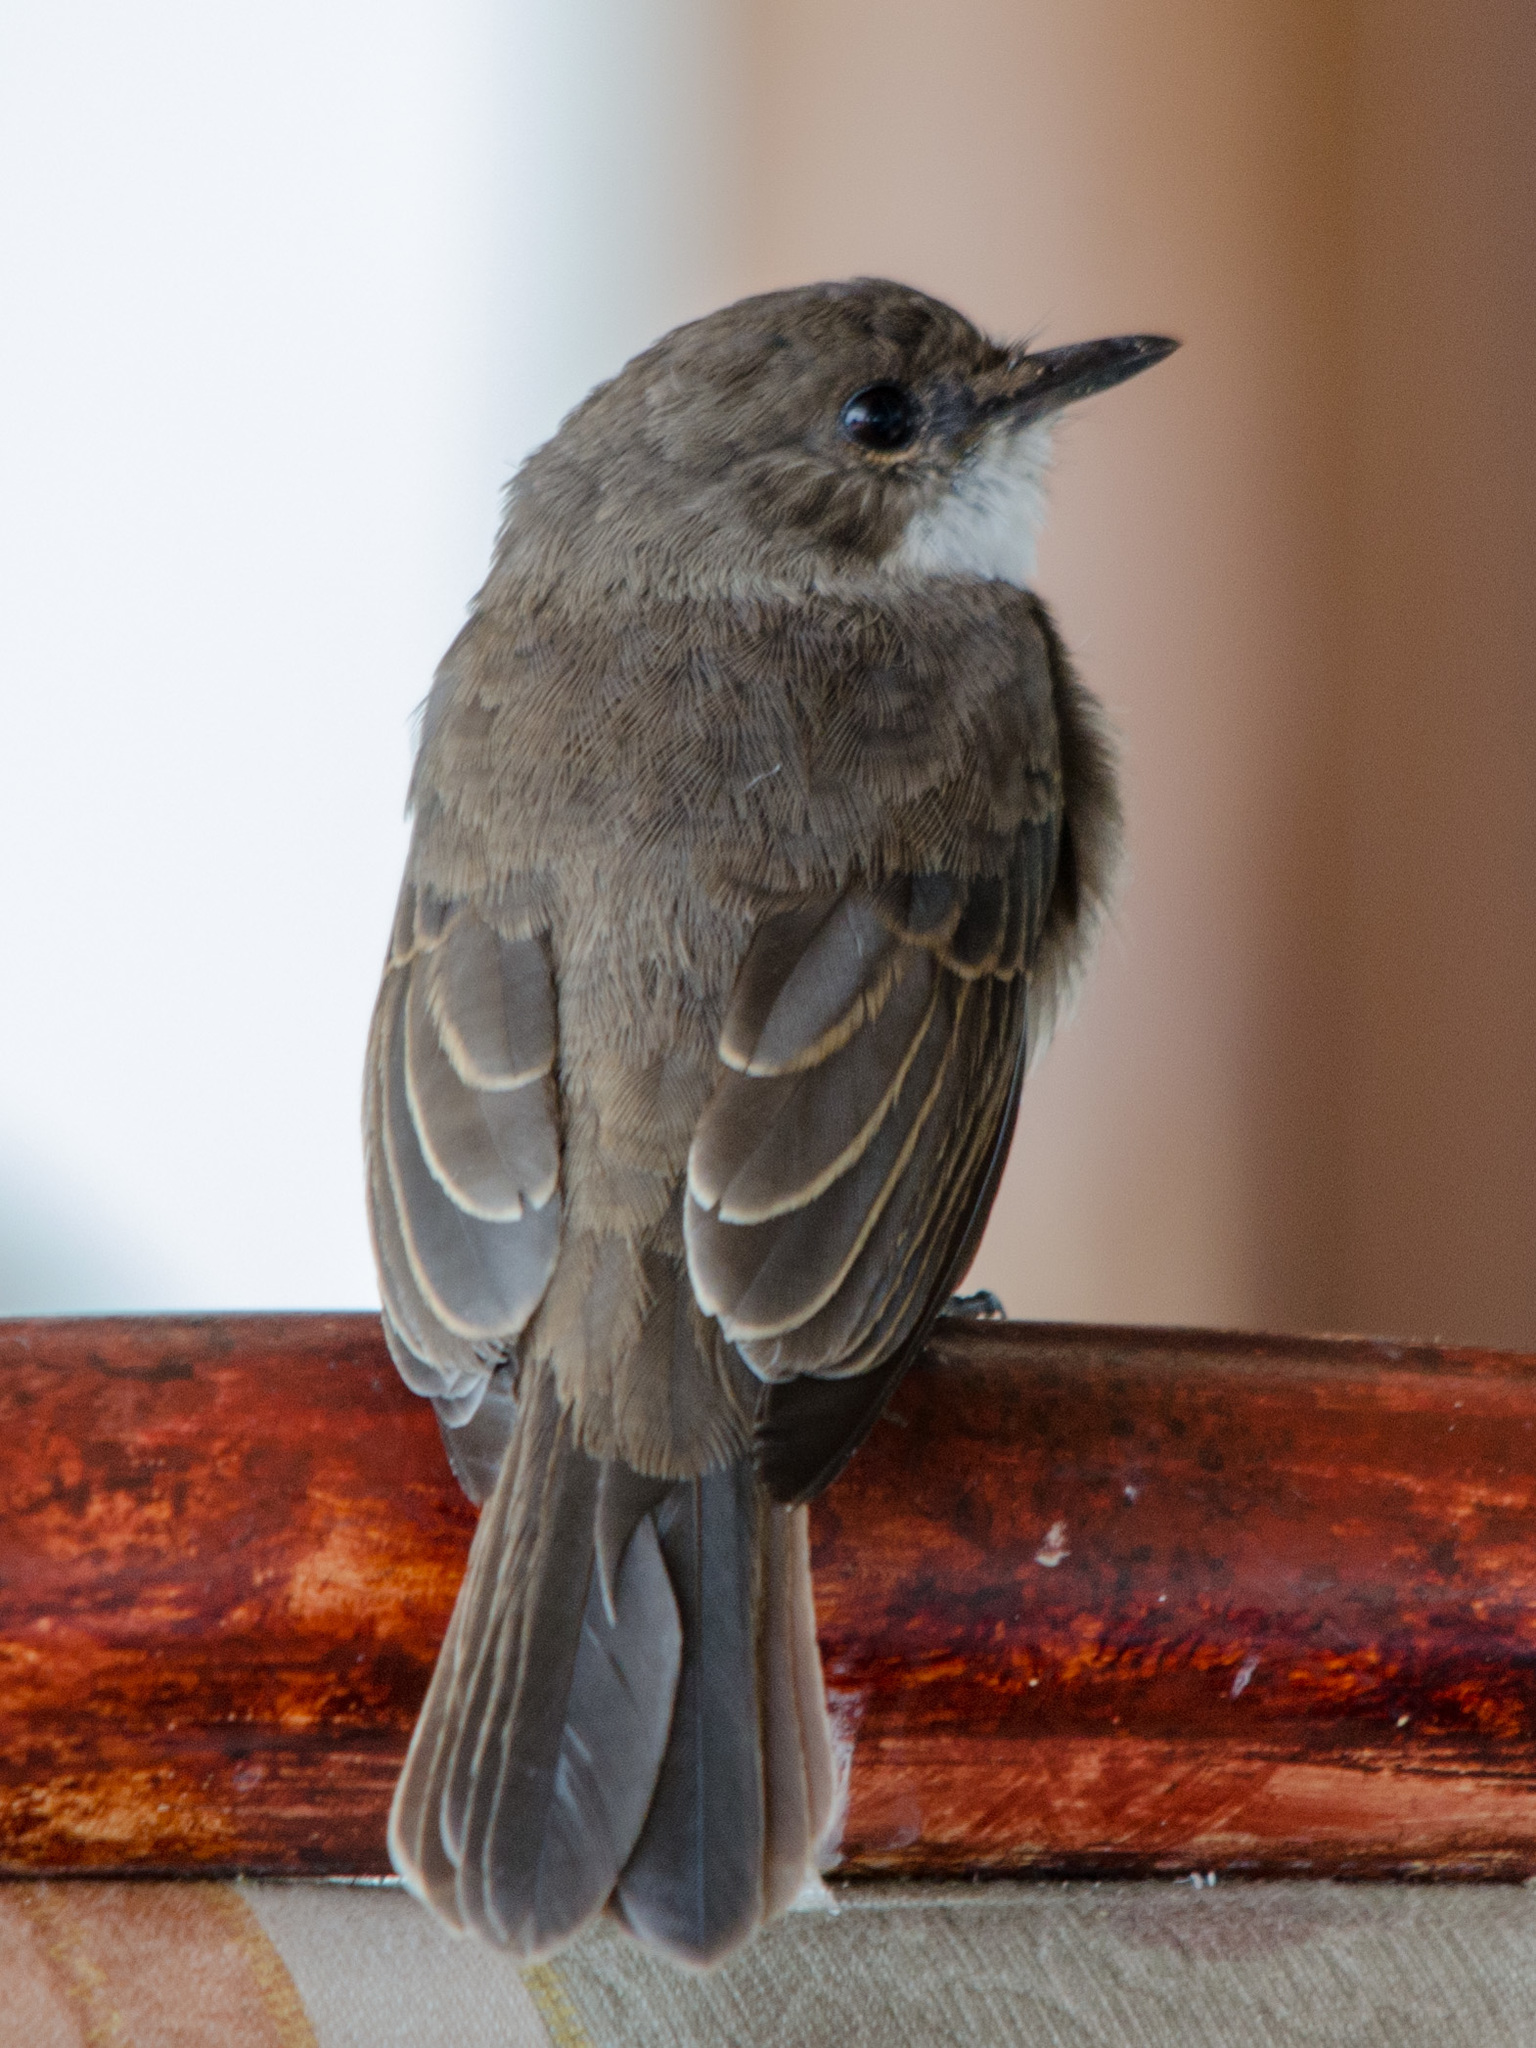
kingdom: Animalia
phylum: Chordata
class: Aves
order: Passeriformes
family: Muscicapidae
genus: Muscicapa
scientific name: Muscicapa aquatica
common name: Swamp flycatcher
